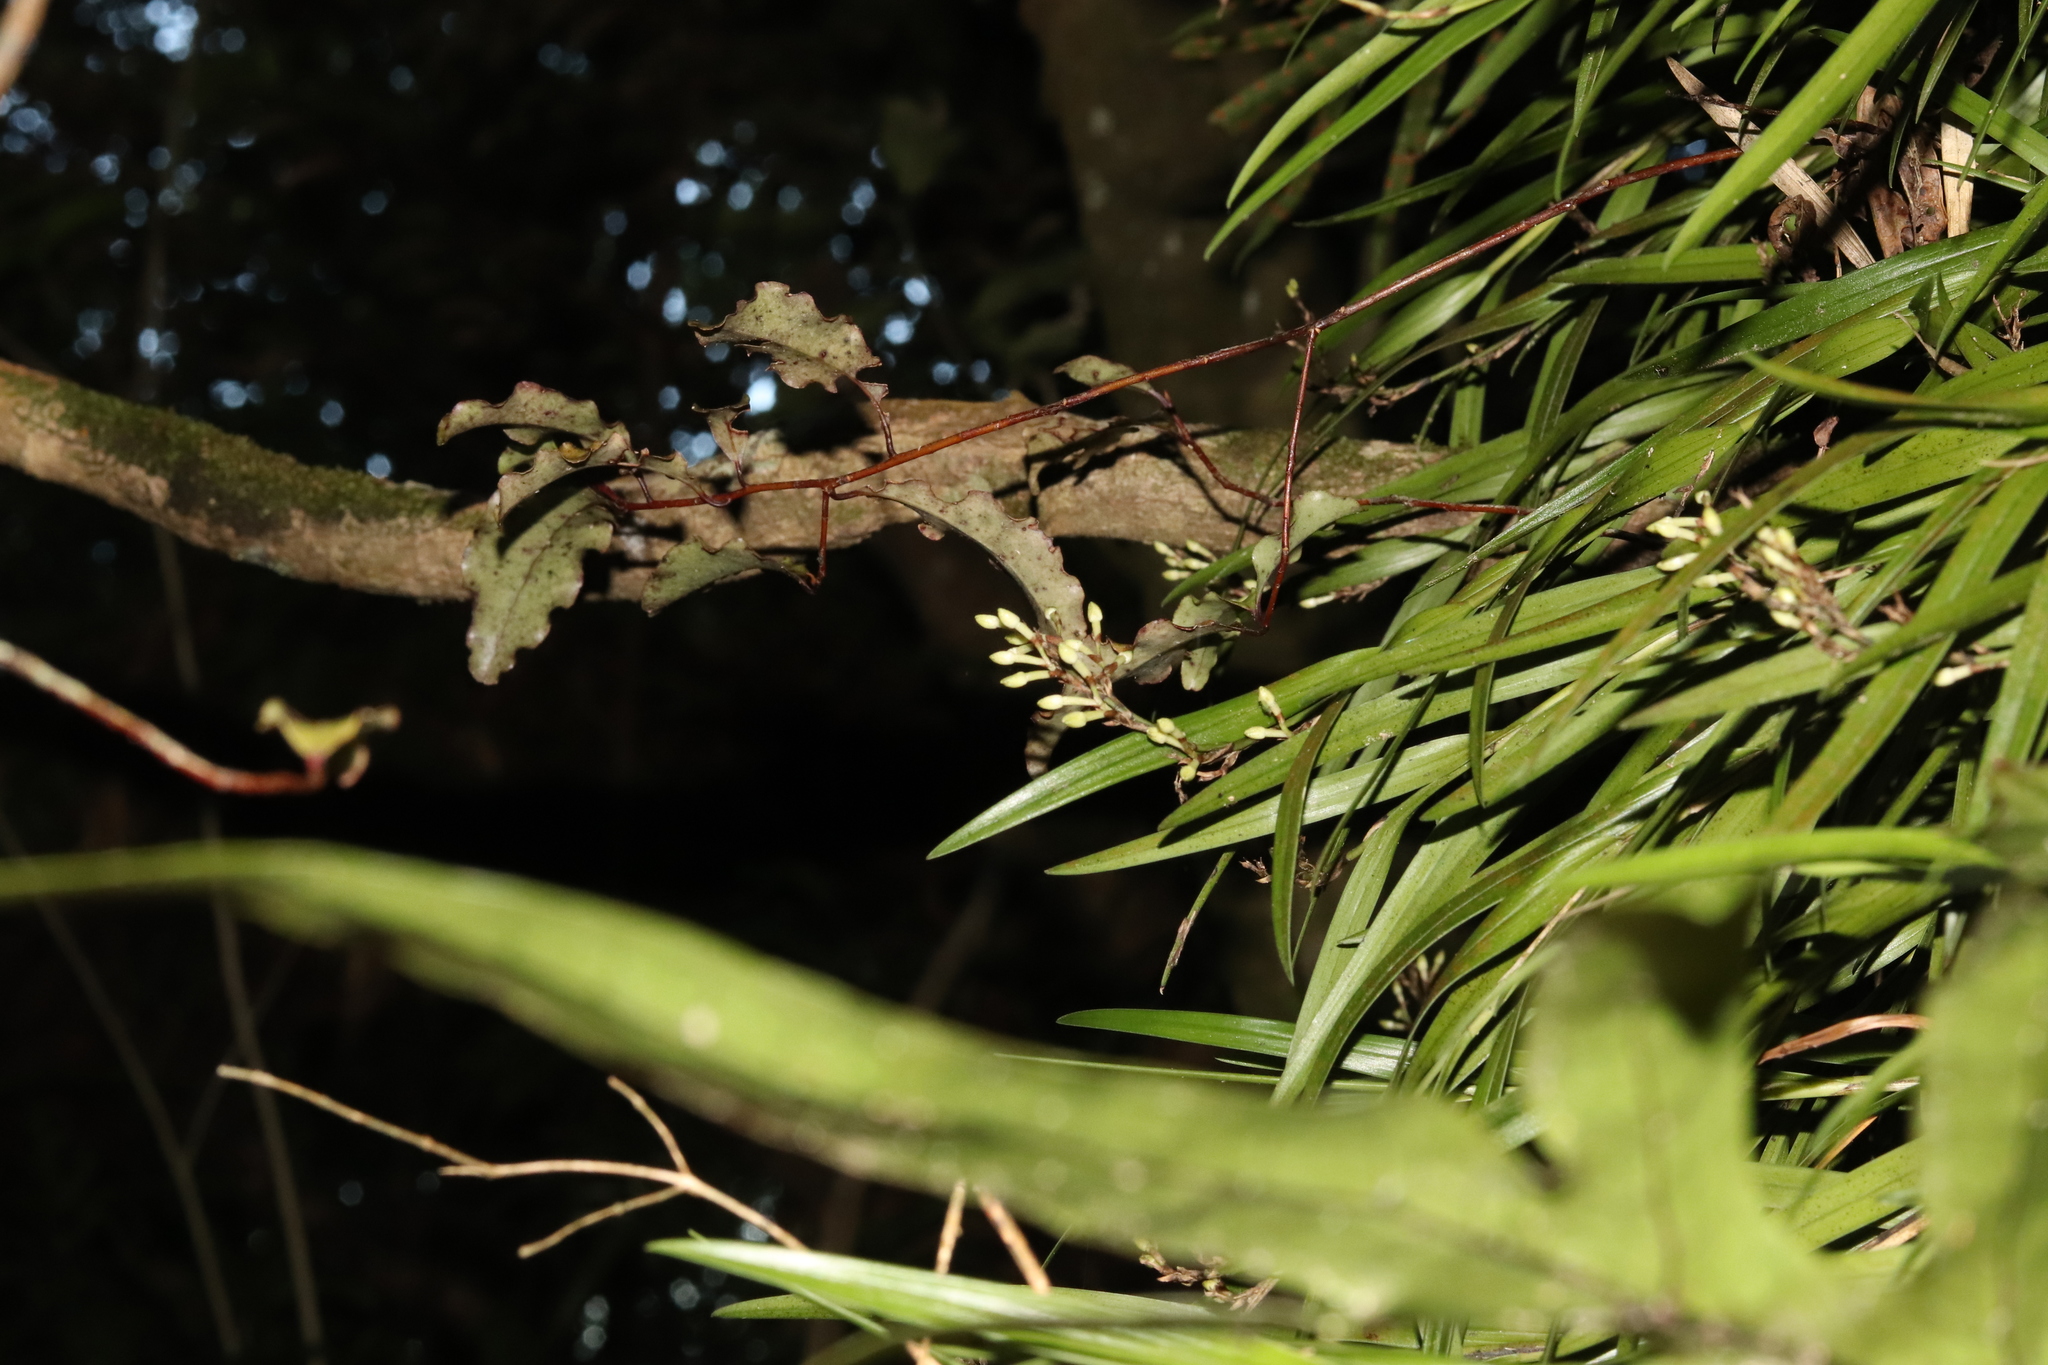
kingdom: Plantae
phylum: Tracheophyta
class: Liliopsida
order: Asparagales
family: Orchidaceae
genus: Earina
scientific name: Earina autumnalis
